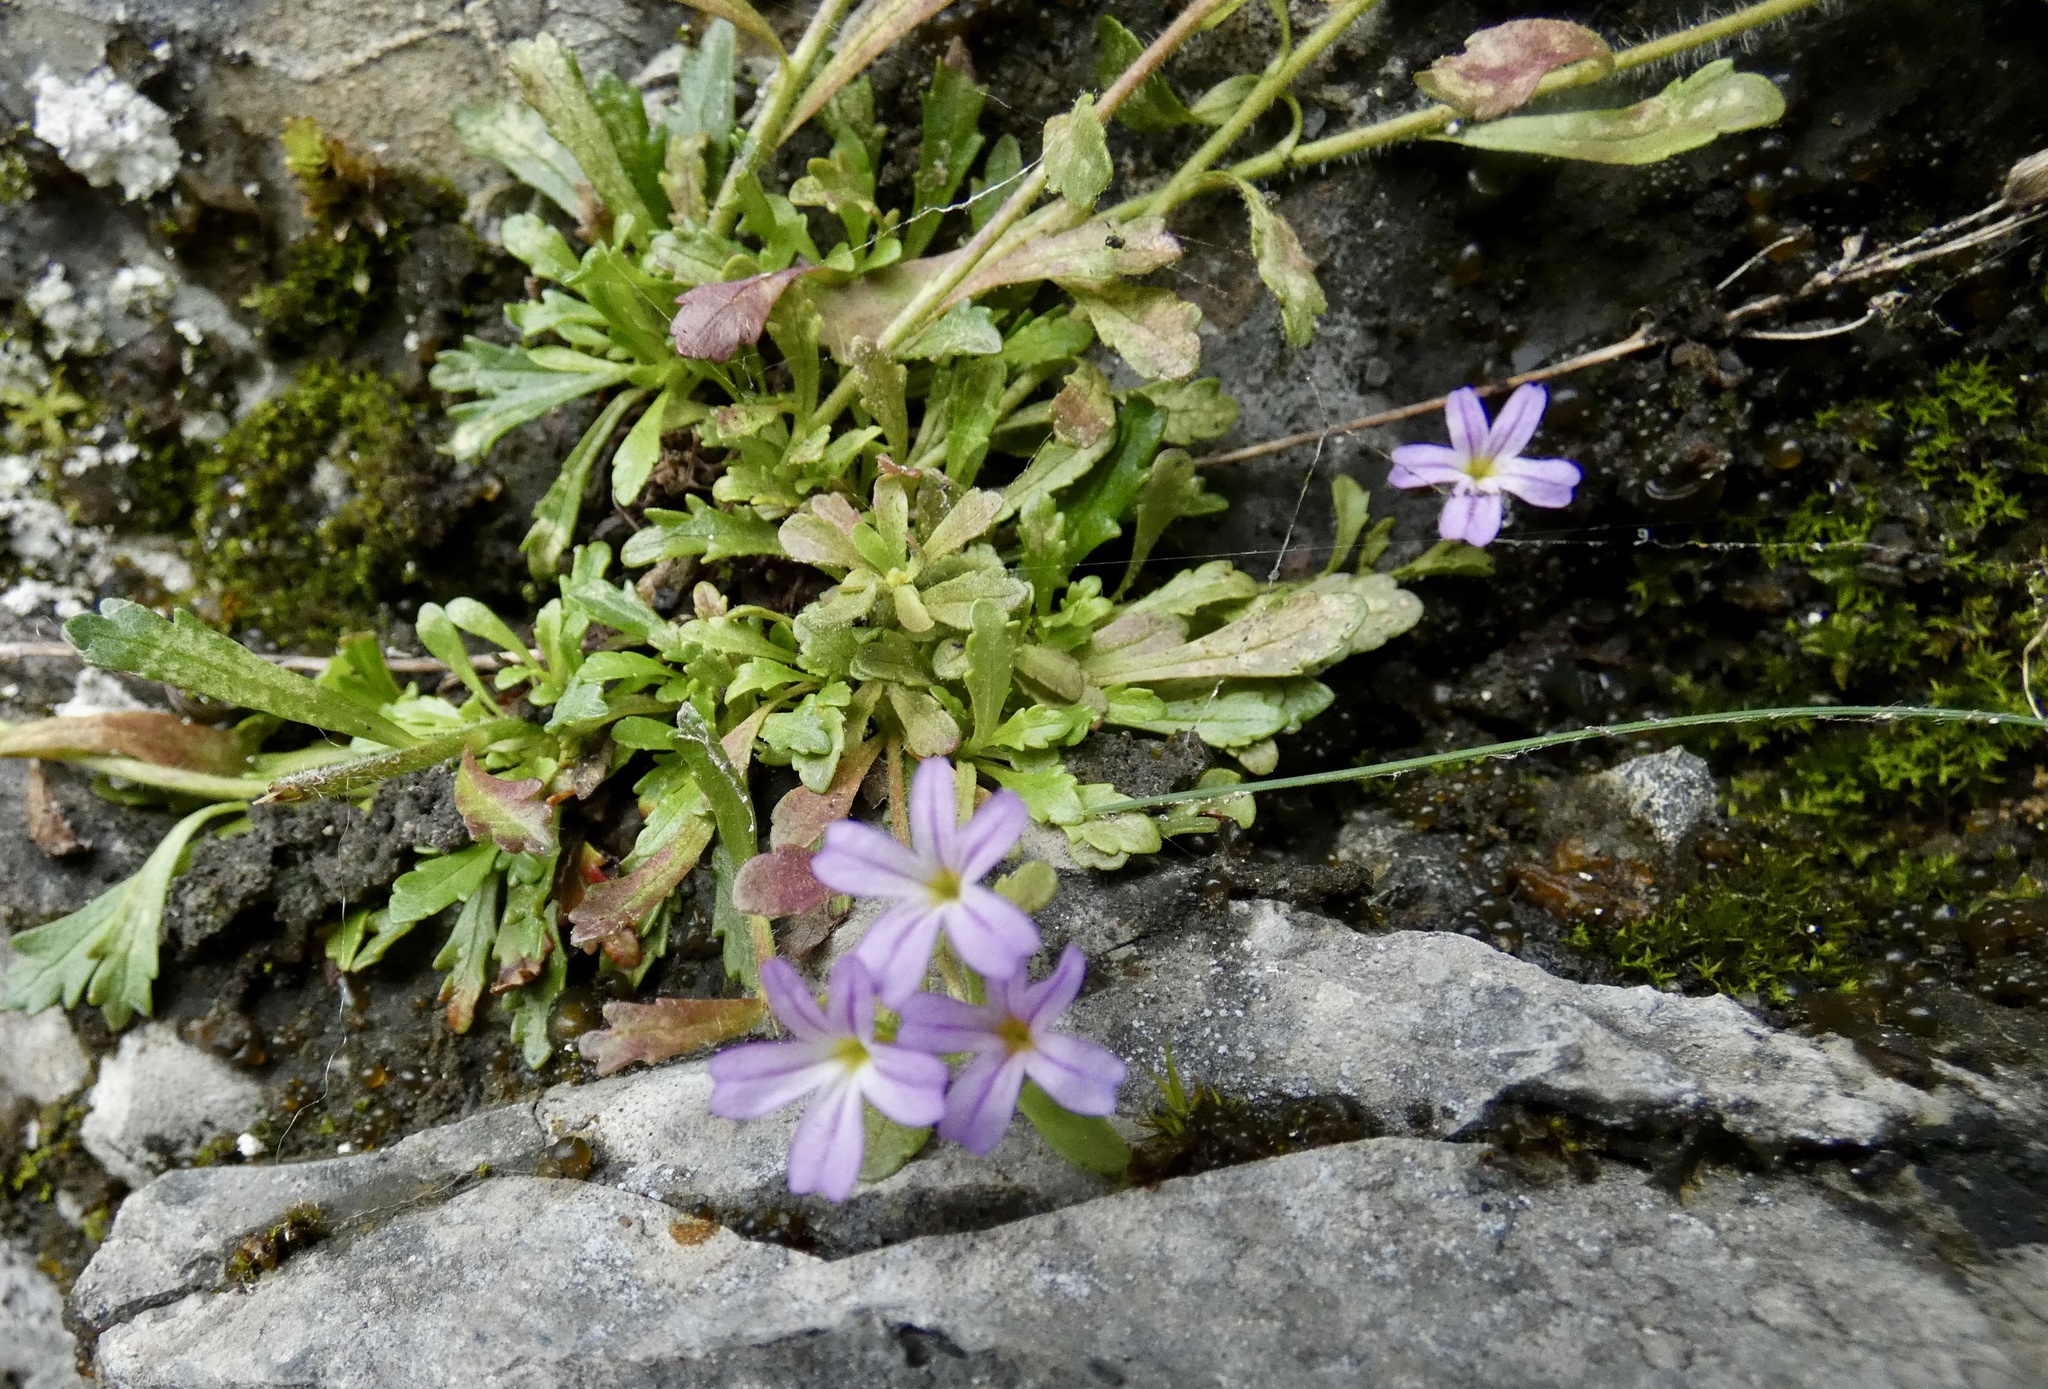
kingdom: Plantae
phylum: Tracheophyta
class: Magnoliopsida
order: Lamiales
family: Plantaginaceae
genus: Erinus
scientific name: Erinus alpinus
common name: Fairy foxglove
